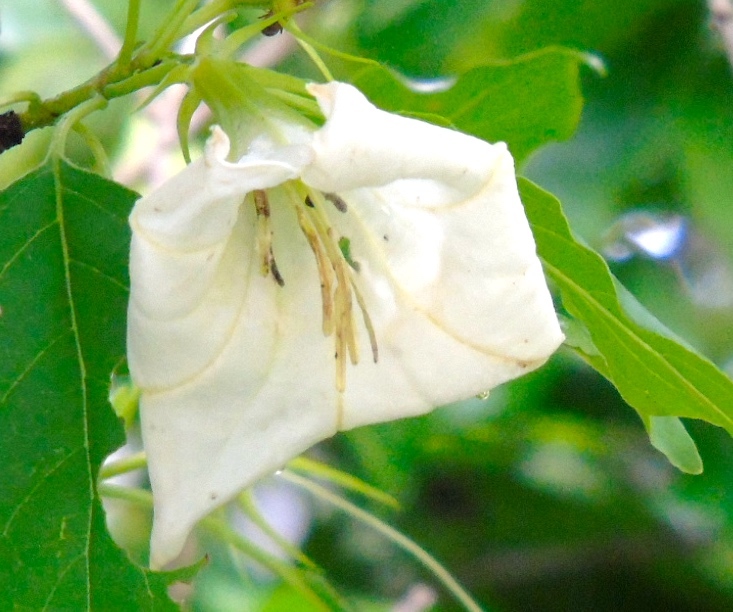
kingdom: Plantae
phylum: Tracheophyta
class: Magnoliopsida
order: Gentianales
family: Rubiaceae
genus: Hintonia
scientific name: Hintonia latiflora
